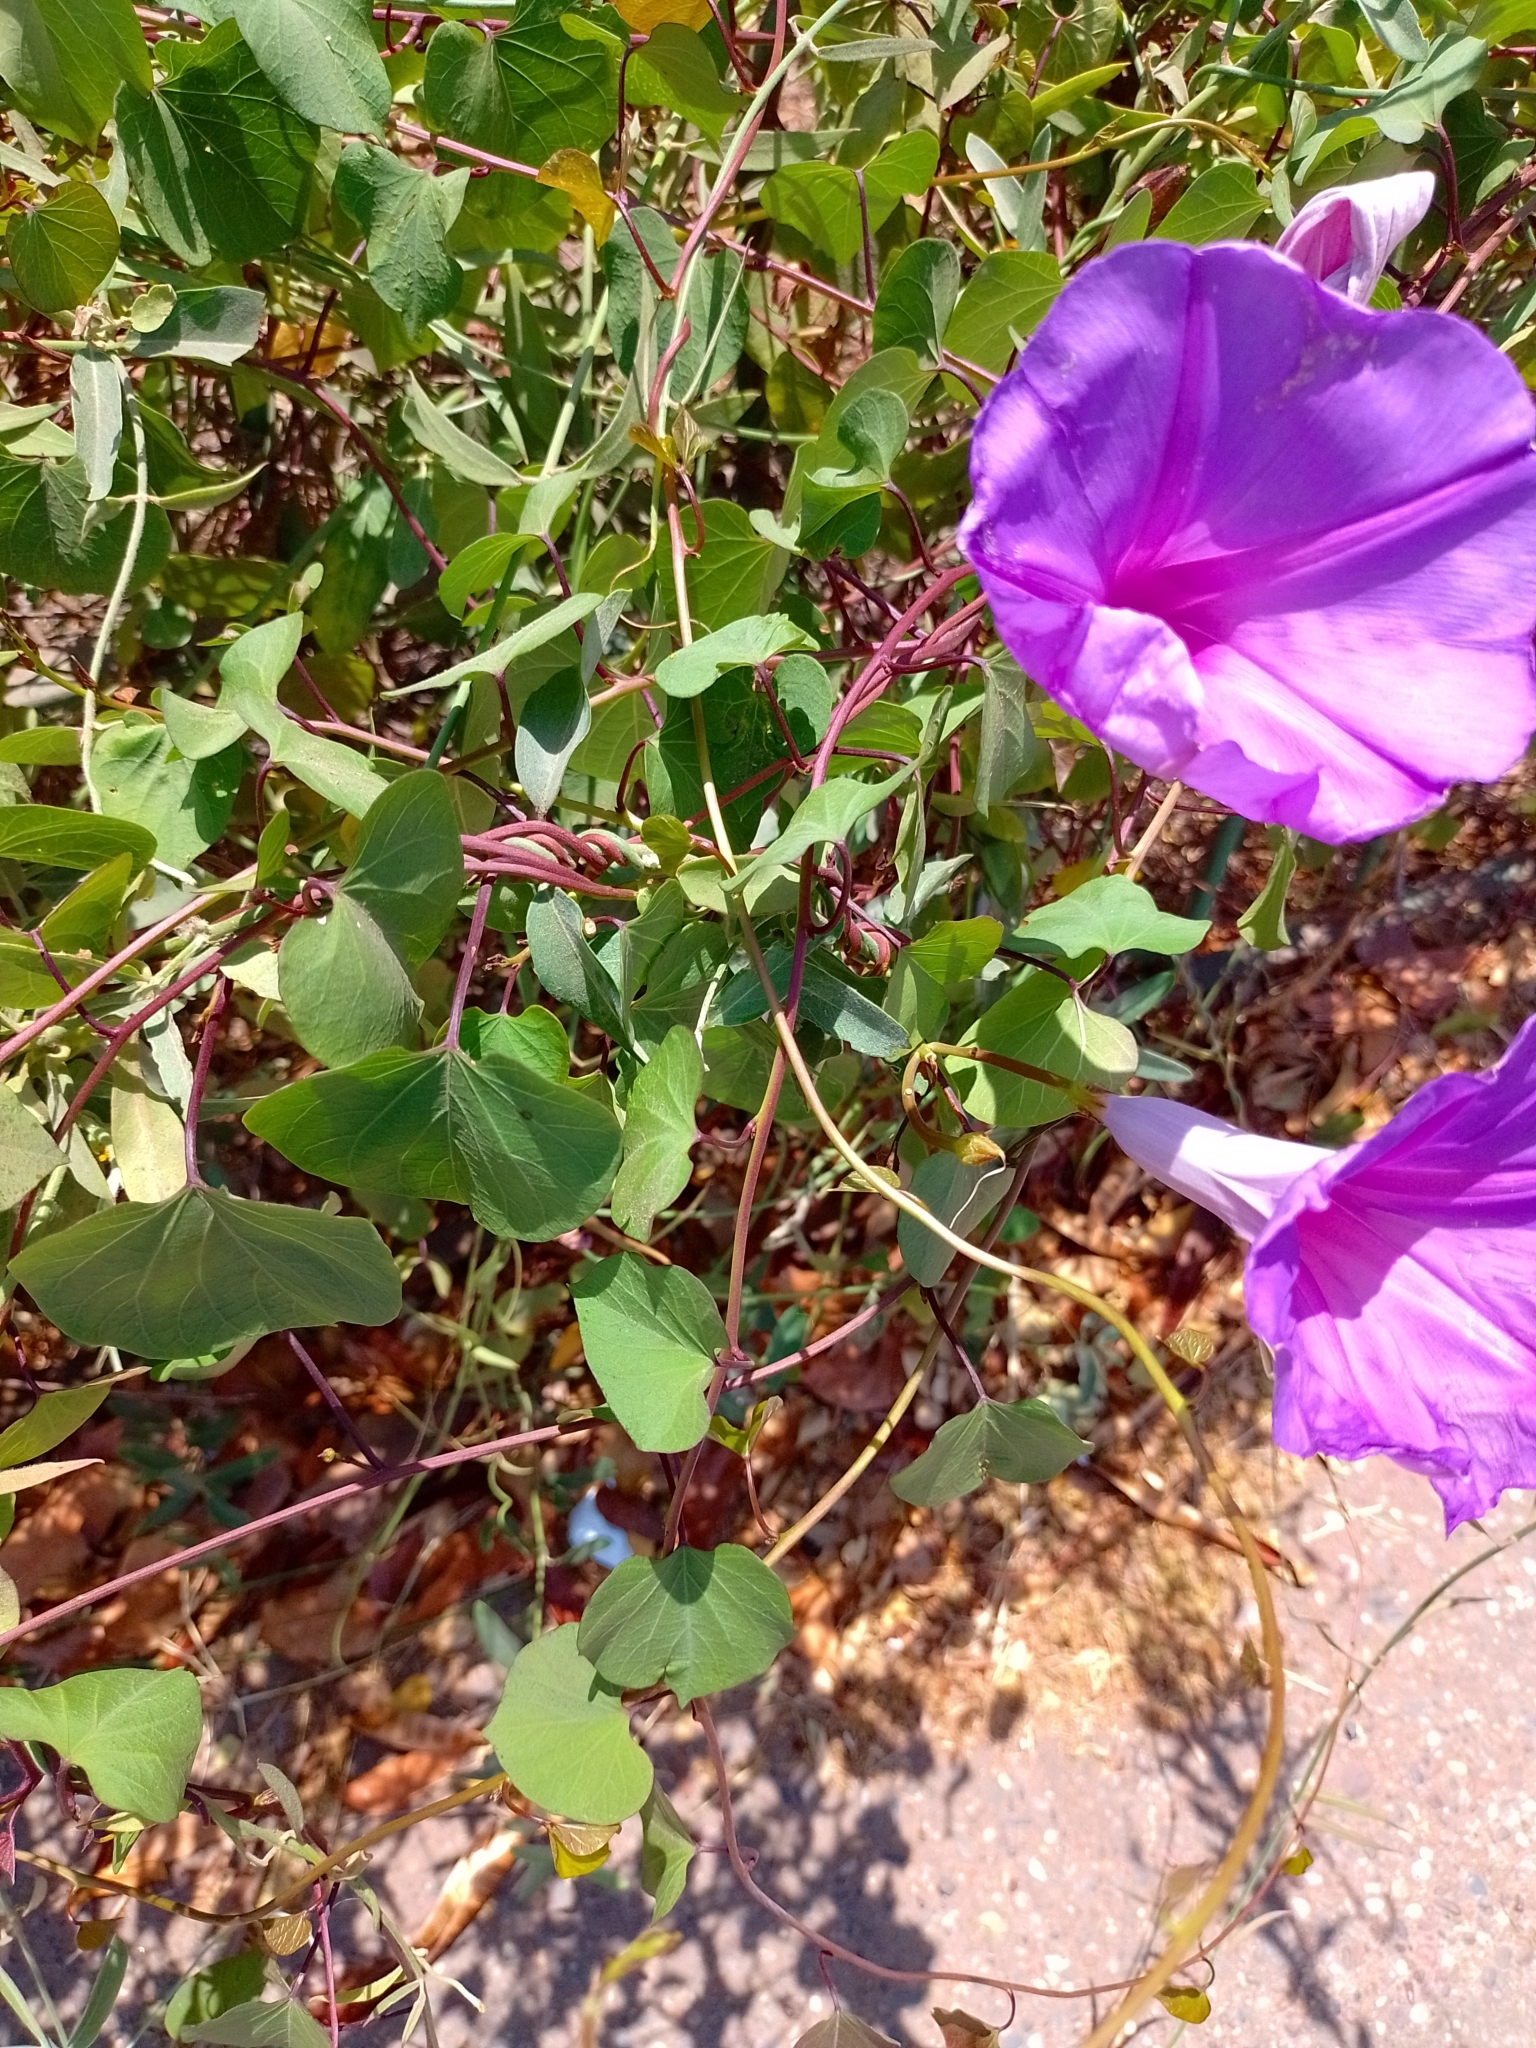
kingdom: Plantae
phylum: Tracheophyta
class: Magnoliopsida
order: Solanales
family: Convolvulaceae
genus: Ipomoea
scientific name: Ipomoea pedicellaris
